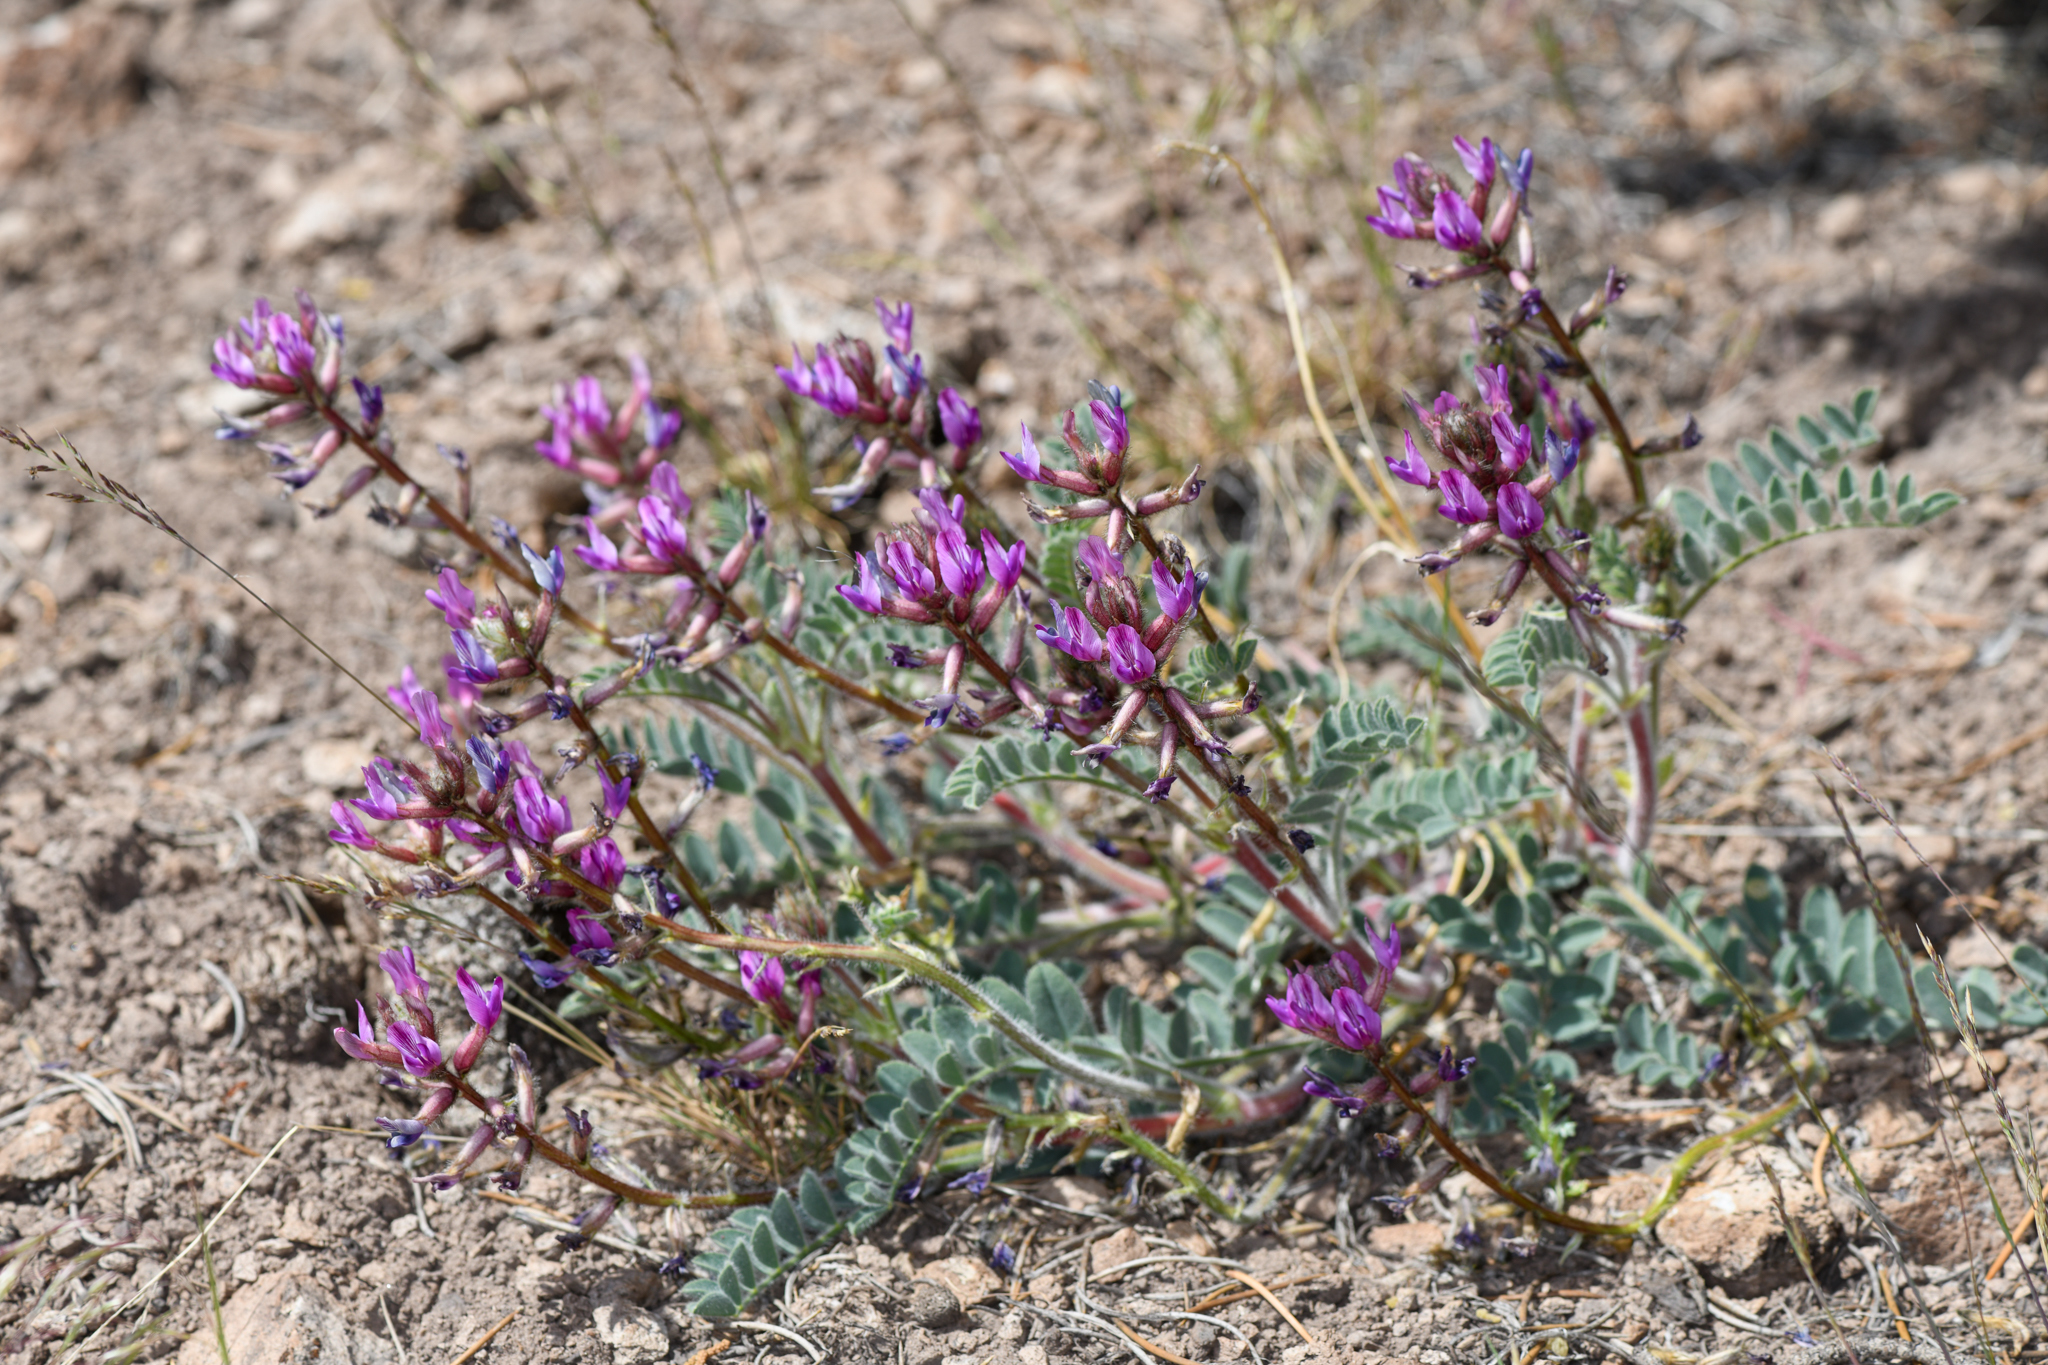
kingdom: Plantae
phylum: Tracheophyta
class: Magnoliopsida
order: Fabales
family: Fabaceae
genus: Astragalus
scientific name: Astragalus malacus
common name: Shaggy milk-vetch
